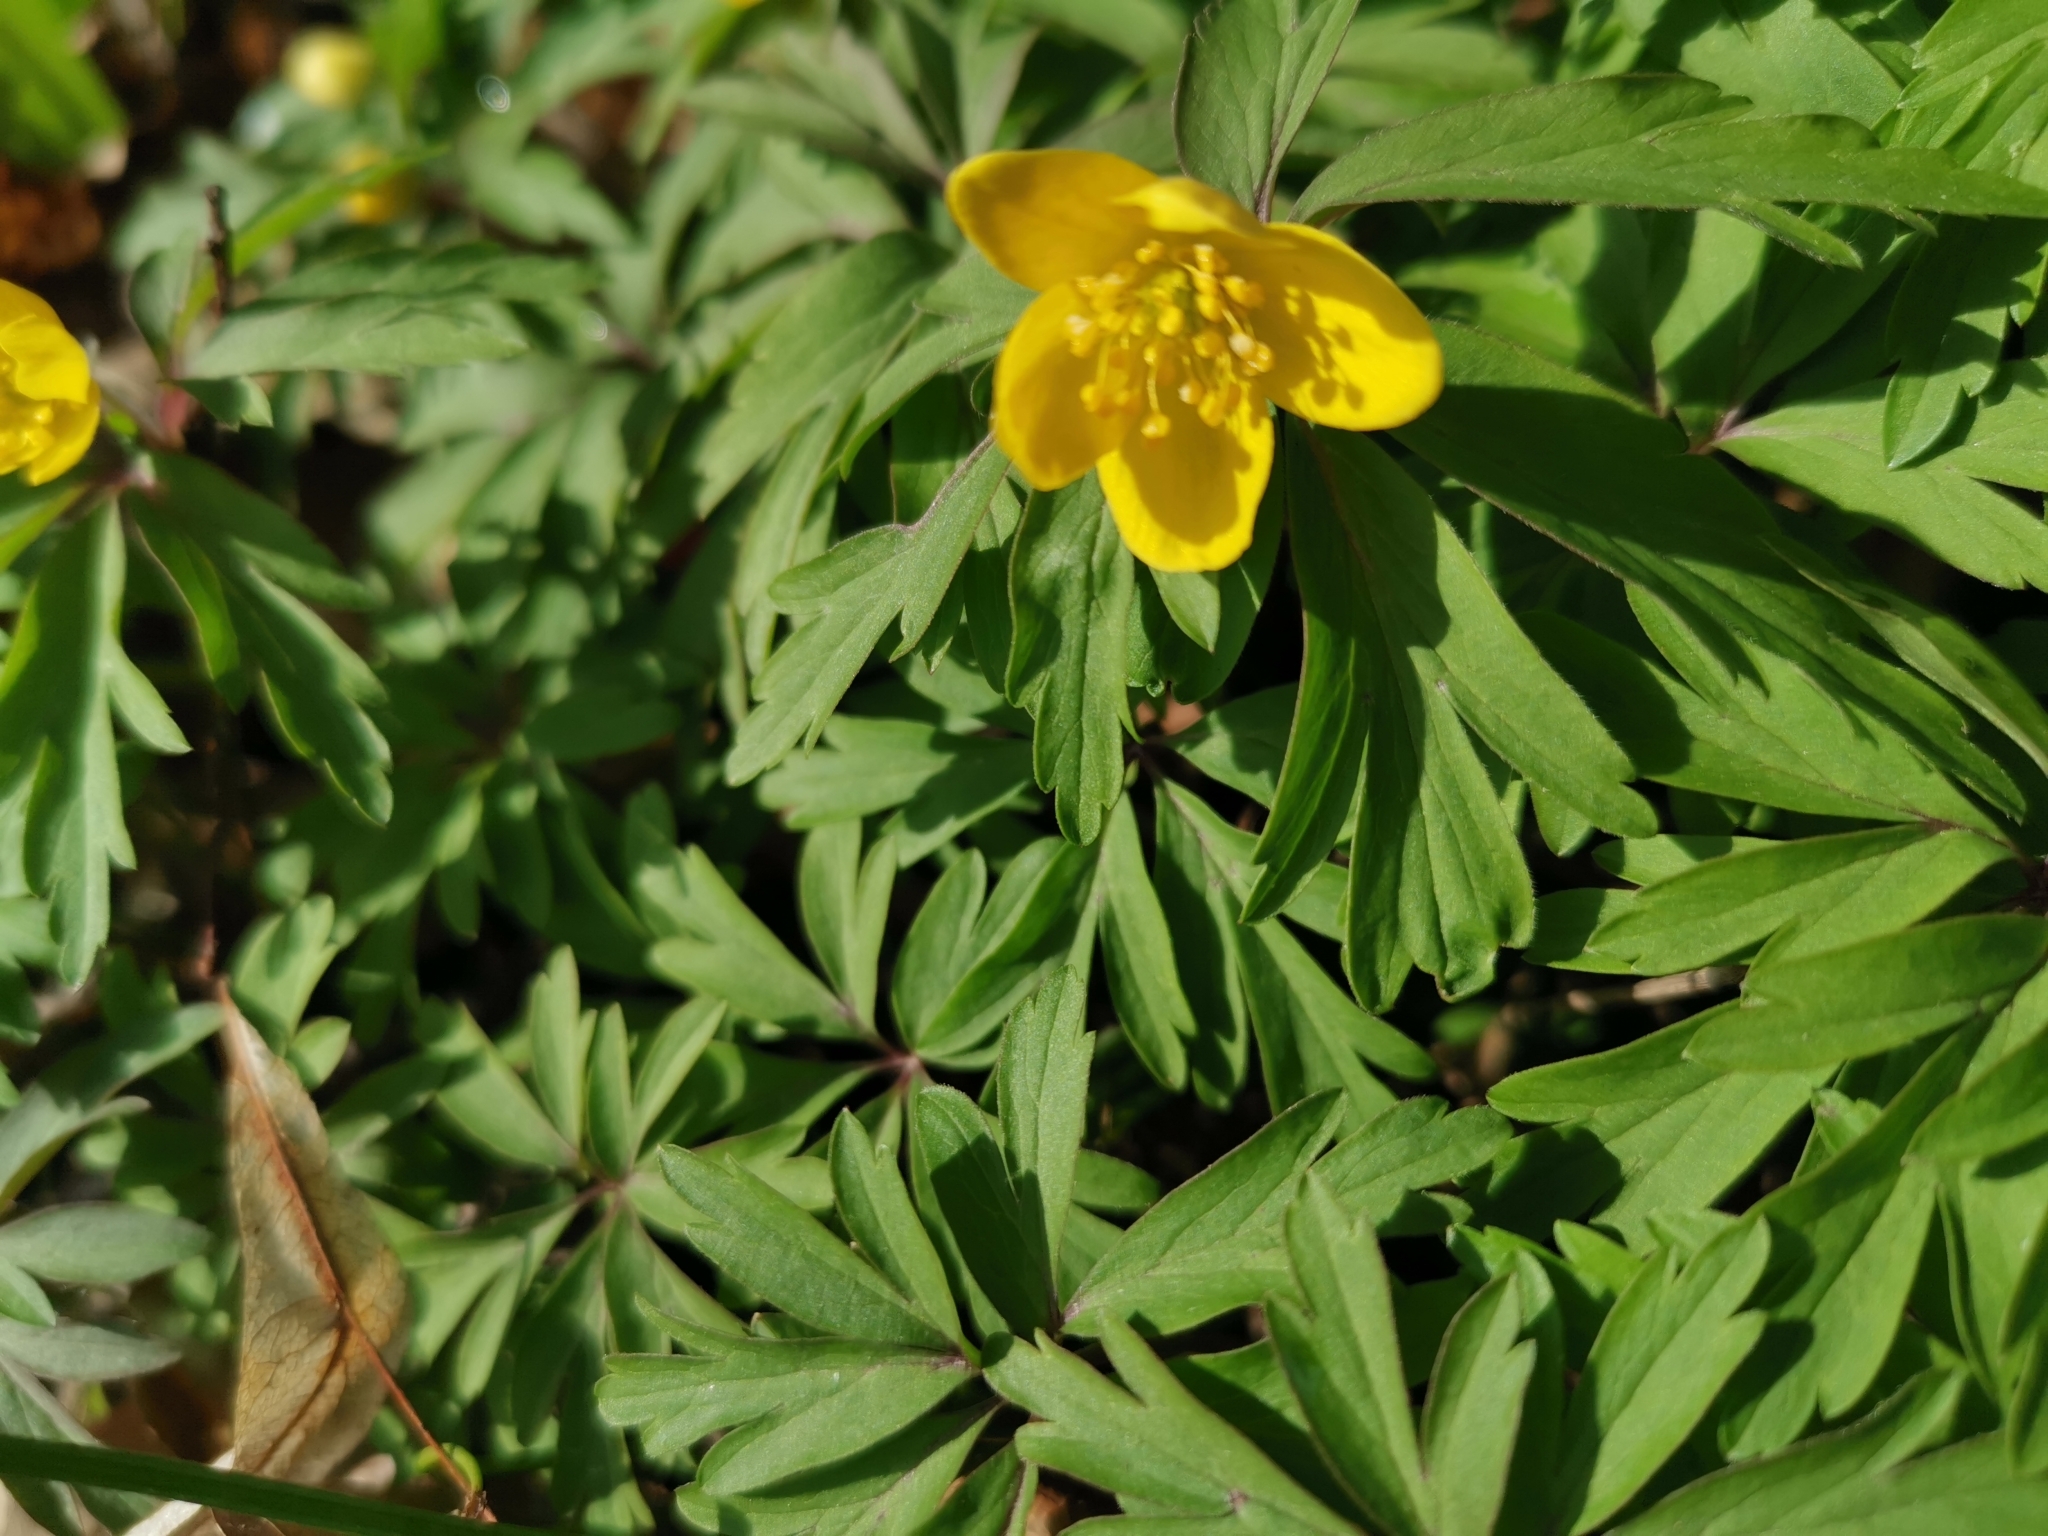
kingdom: Plantae
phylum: Tracheophyta
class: Magnoliopsida
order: Ranunculales
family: Ranunculaceae
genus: Anemone
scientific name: Anemone ranunculoides
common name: Yellow anemone
